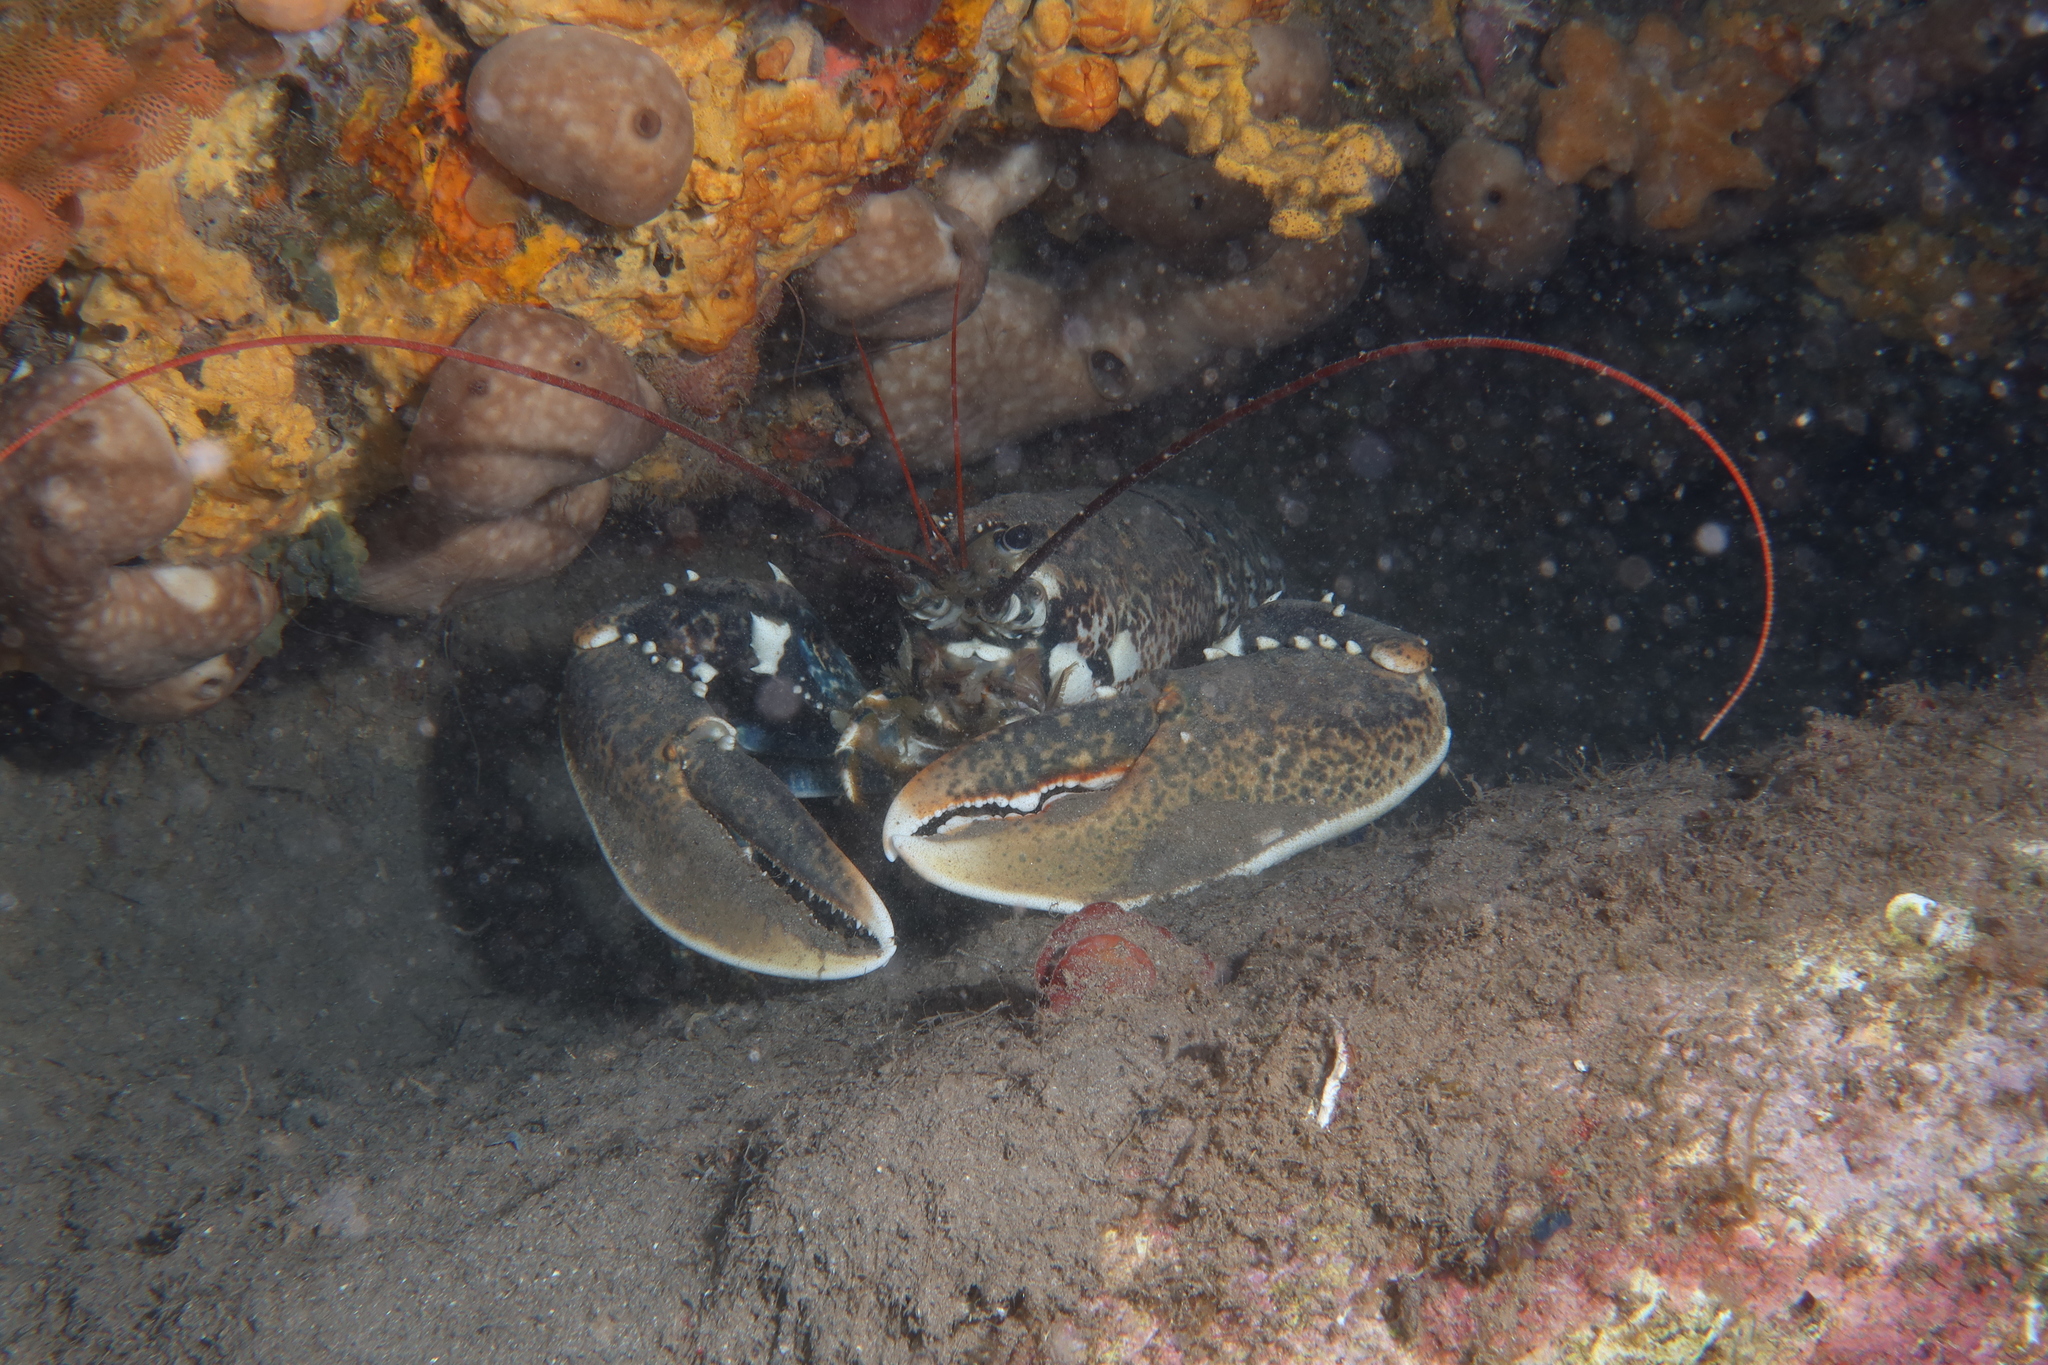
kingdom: Animalia
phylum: Arthropoda
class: Malacostraca
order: Decapoda
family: Nephropidae
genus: Homarus
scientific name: Homarus gammarus
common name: European lobster
